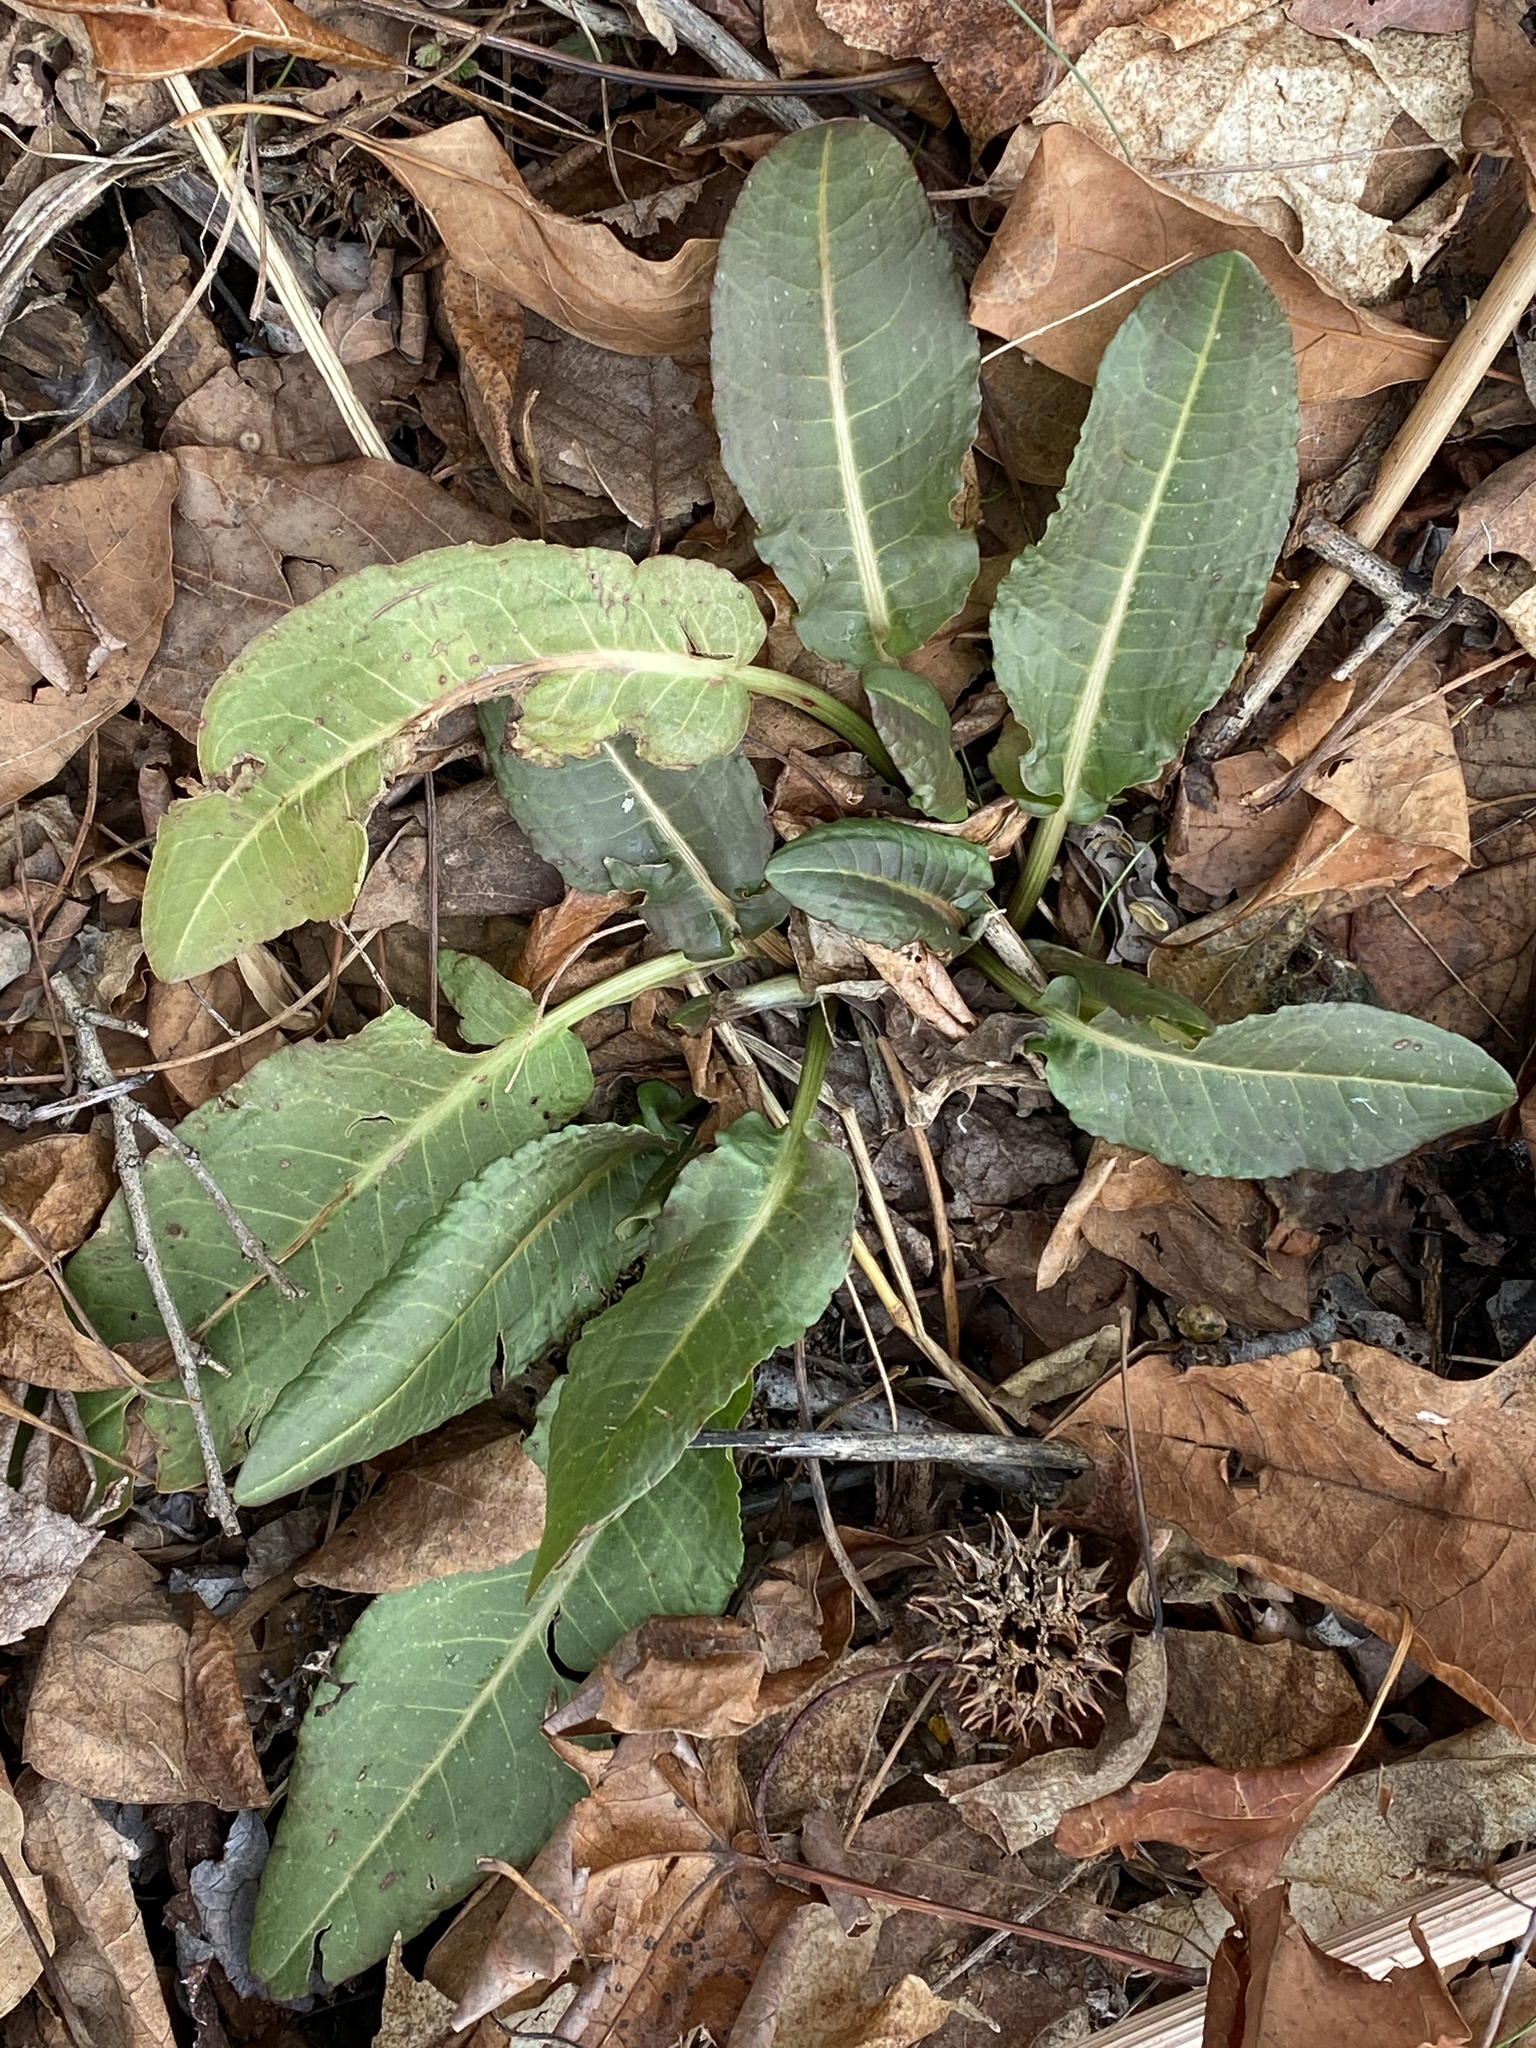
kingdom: Plantae
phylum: Tracheophyta
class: Magnoliopsida
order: Caryophyllales
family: Polygonaceae
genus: Rumex
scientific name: Rumex obtusifolius
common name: Bitter dock
